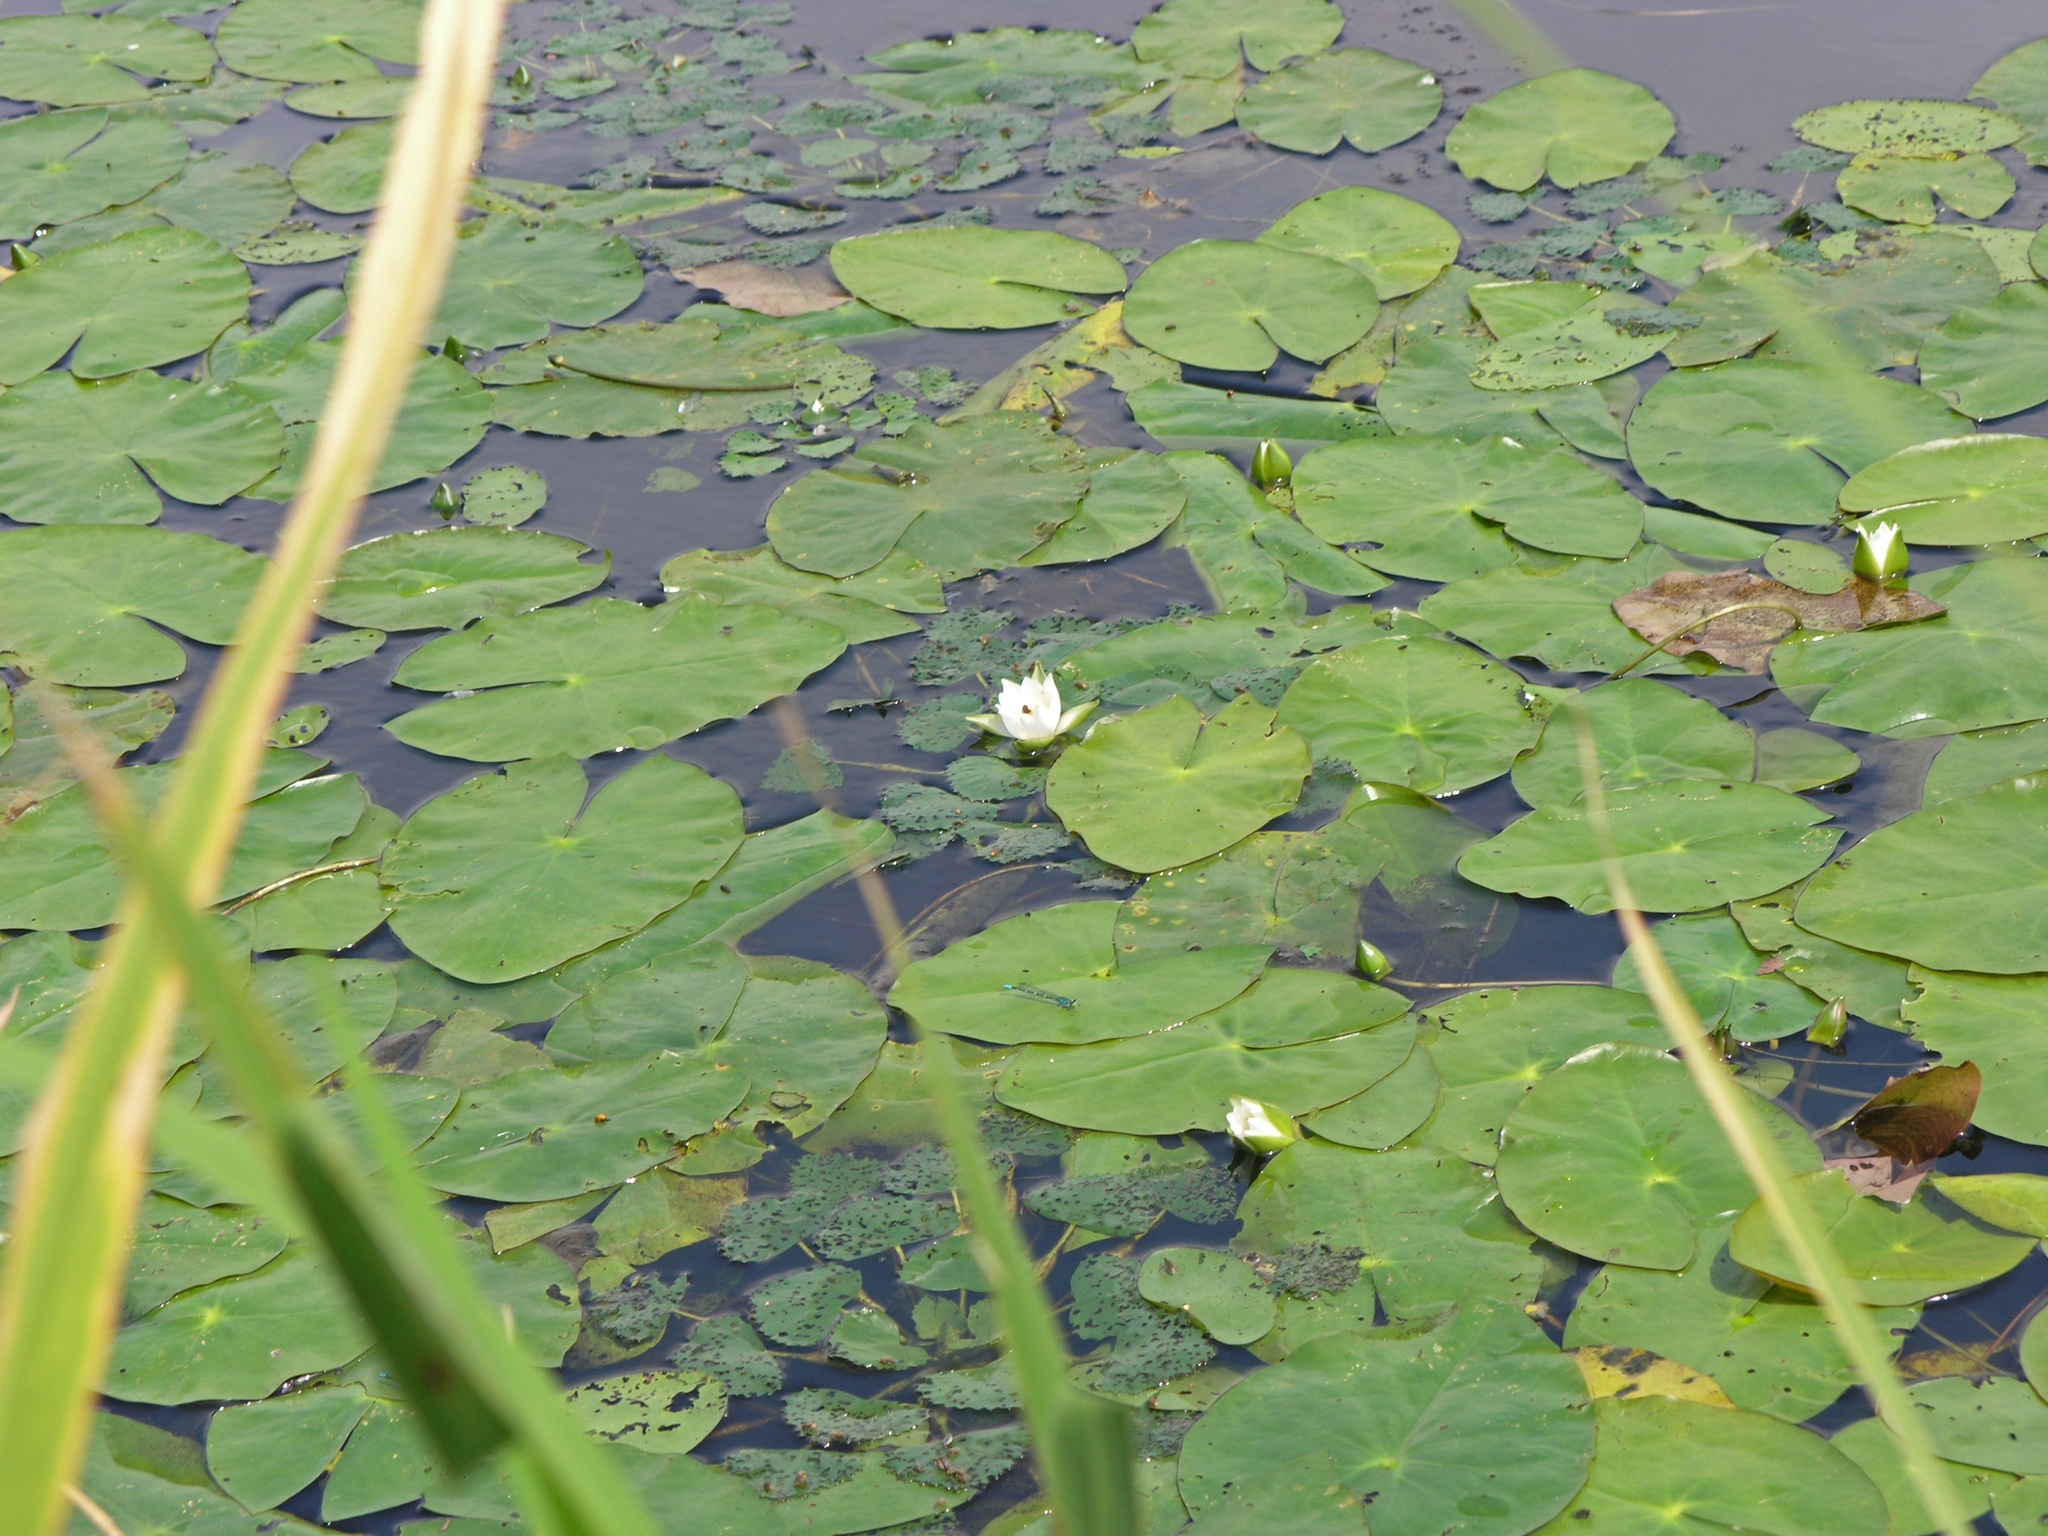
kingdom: Plantae
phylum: Tracheophyta
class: Magnoliopsida
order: Nymphaeales
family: Nymphaeaceae
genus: Nymphaea
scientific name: Nymphaea tetragona
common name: Pygmy water-lily
